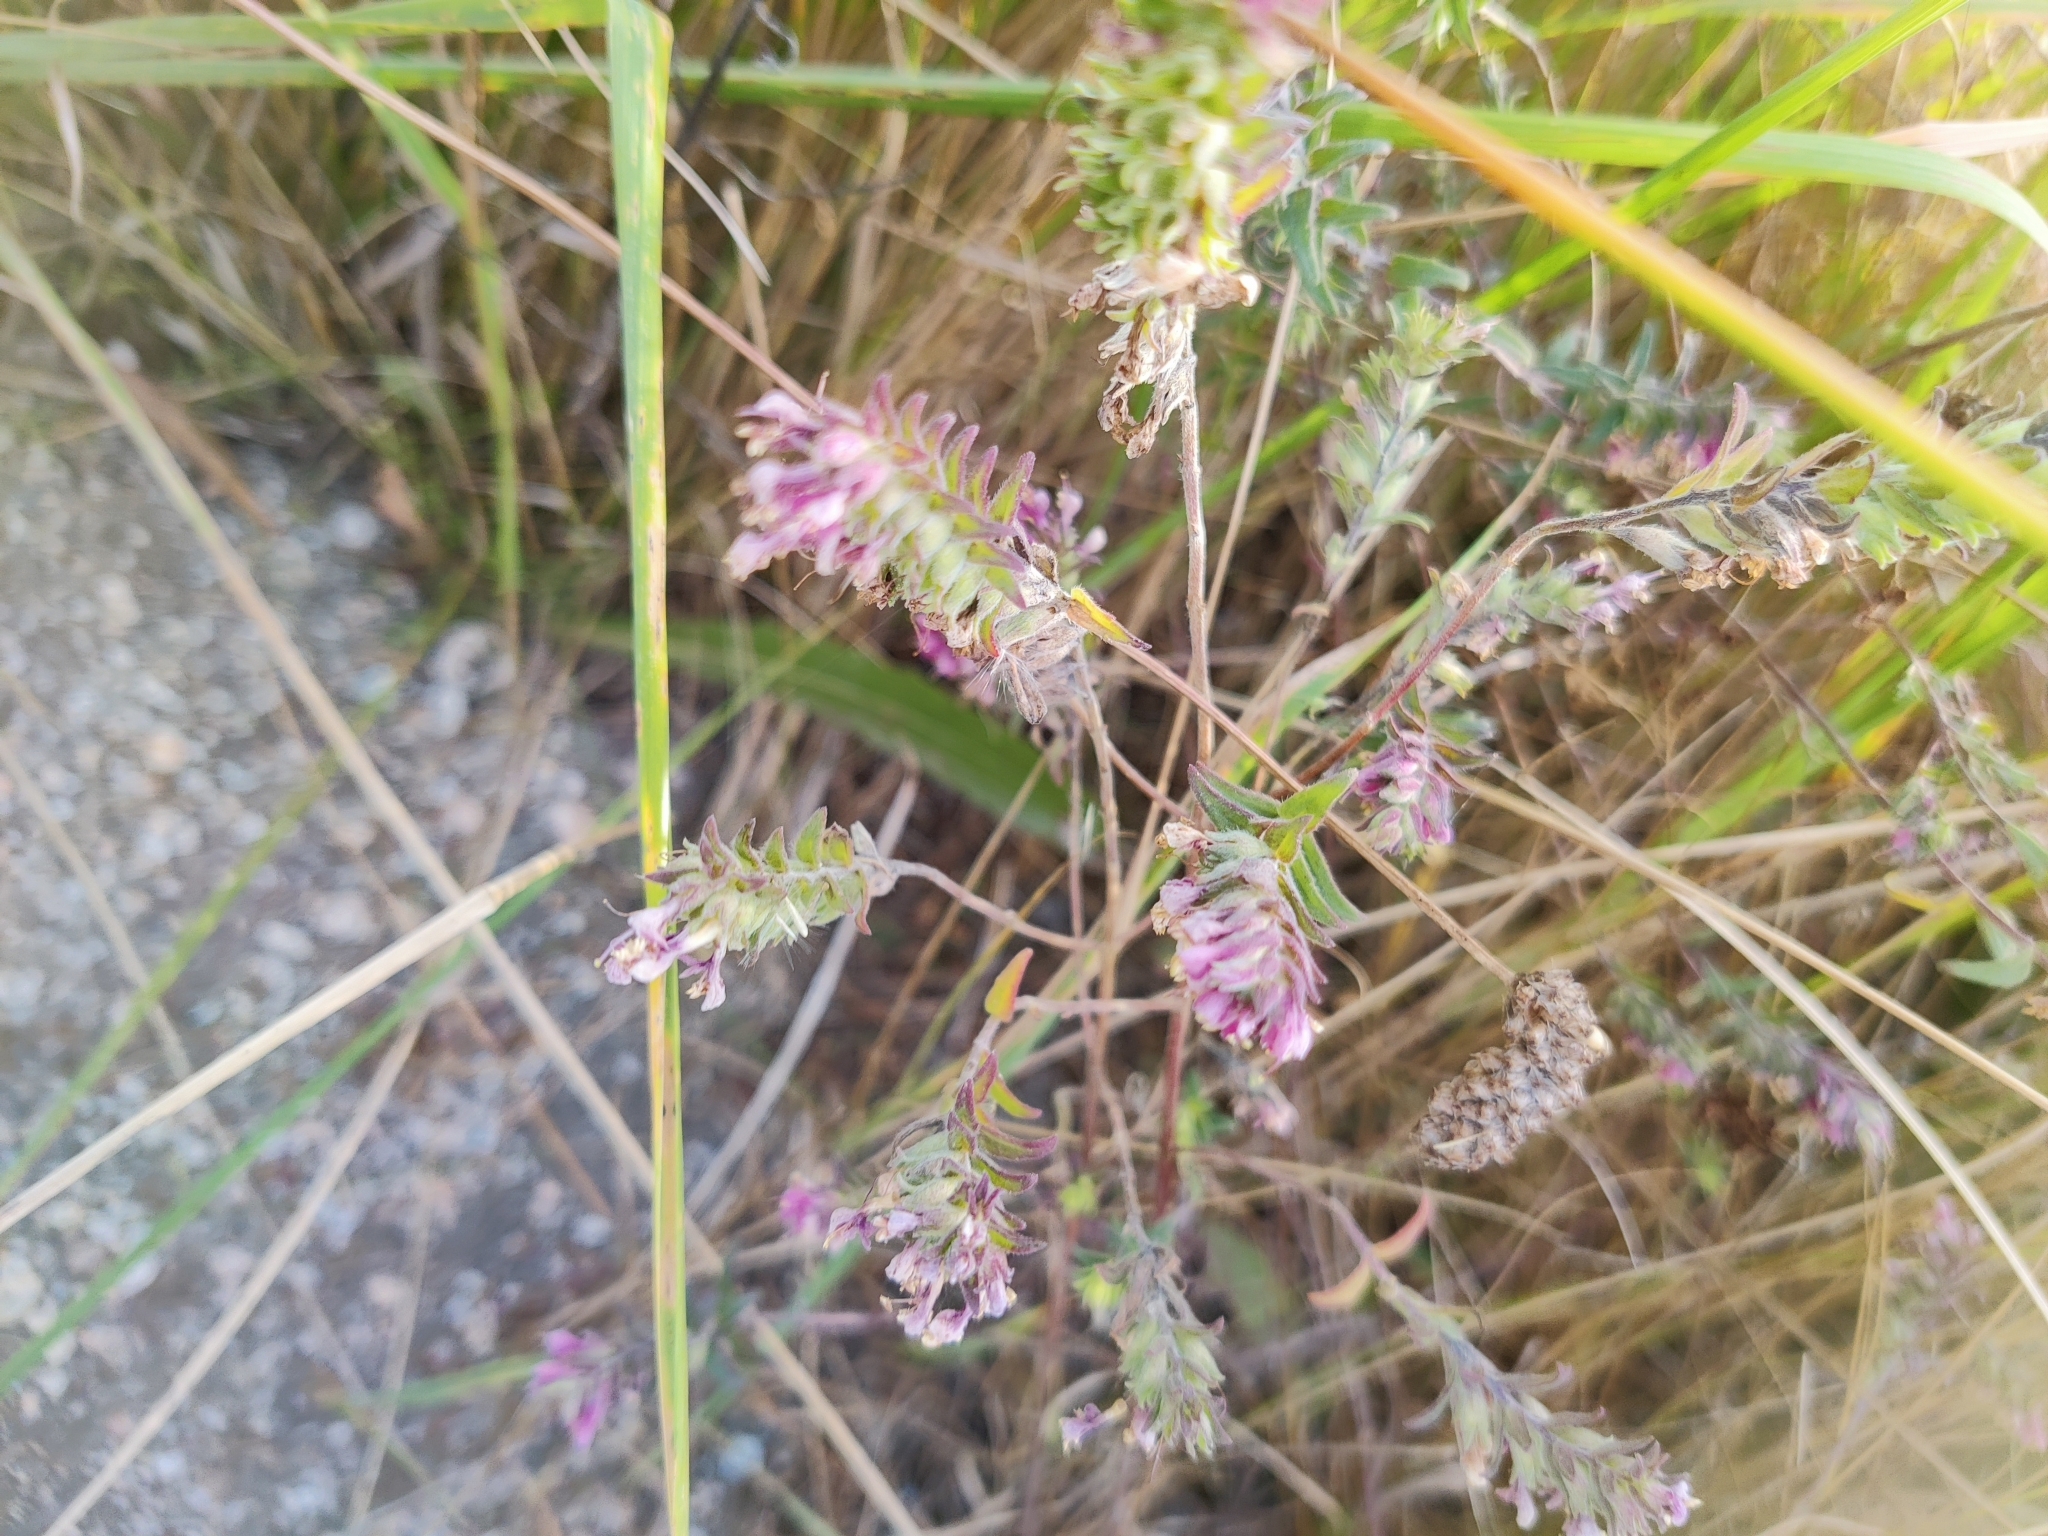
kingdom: Plantae
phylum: Tracheophyta
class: Magnoliopsida
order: Lamiales
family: Orobanchaceae
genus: Odontites
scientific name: Odontites vulgaris
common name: Broomrape
